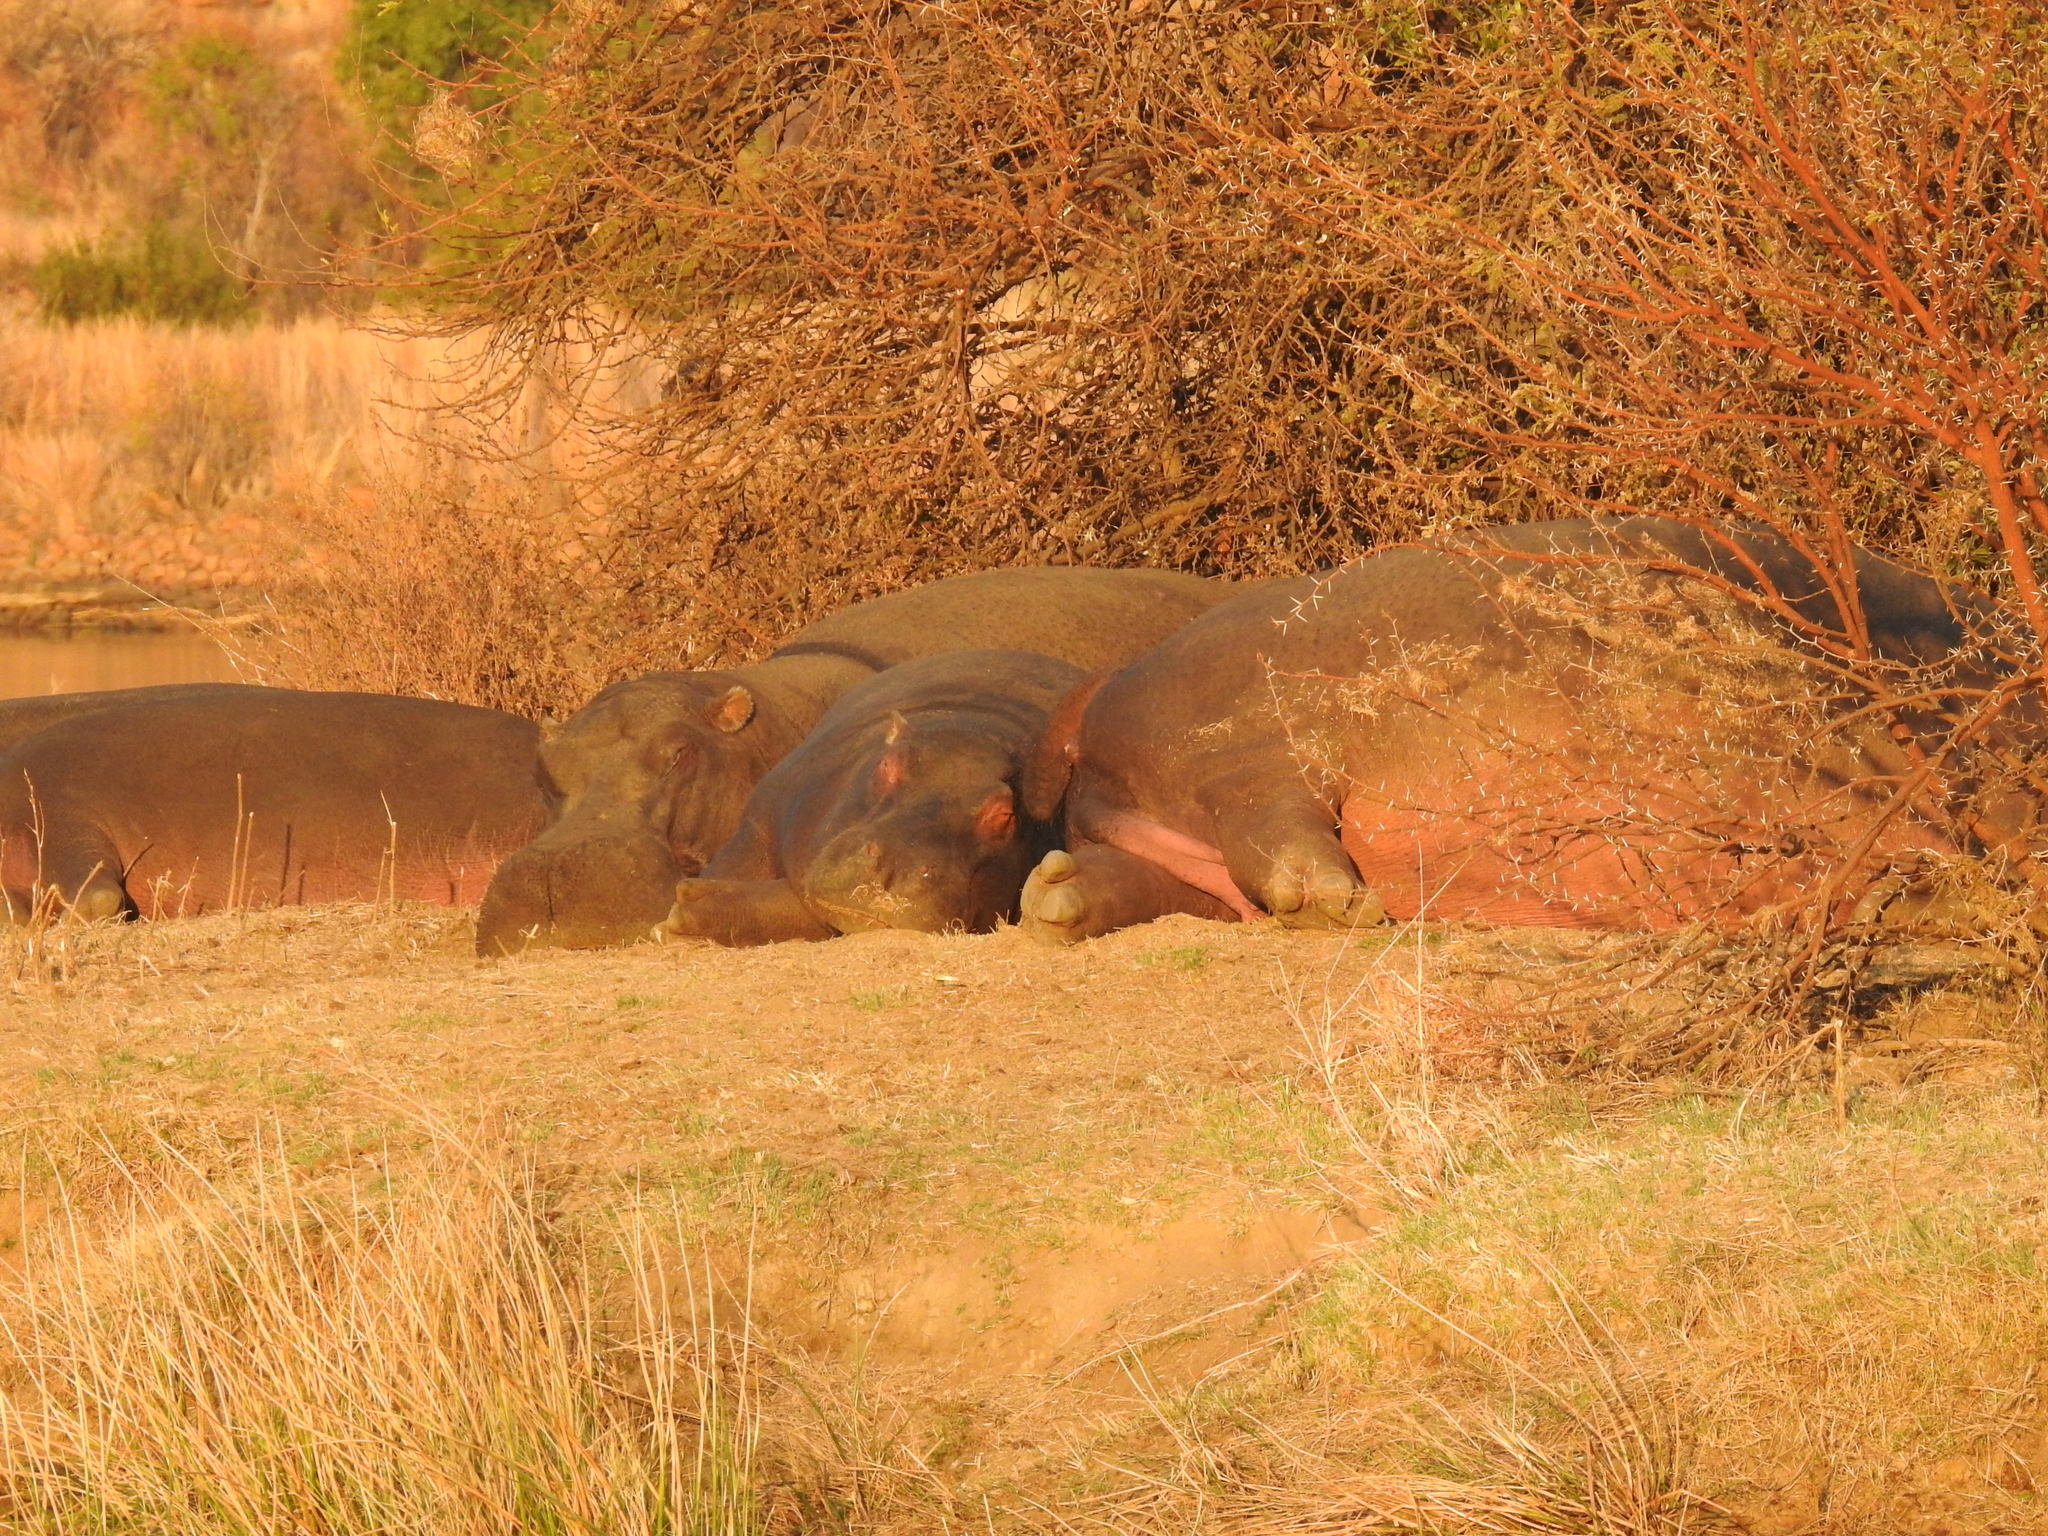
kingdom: Animalia
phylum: Chordata
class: Mammalia
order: Artiodactyla
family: Hippopotamidae
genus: Hippopotamus
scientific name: Hippopotamus amphibius
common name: Common hippopotamus
